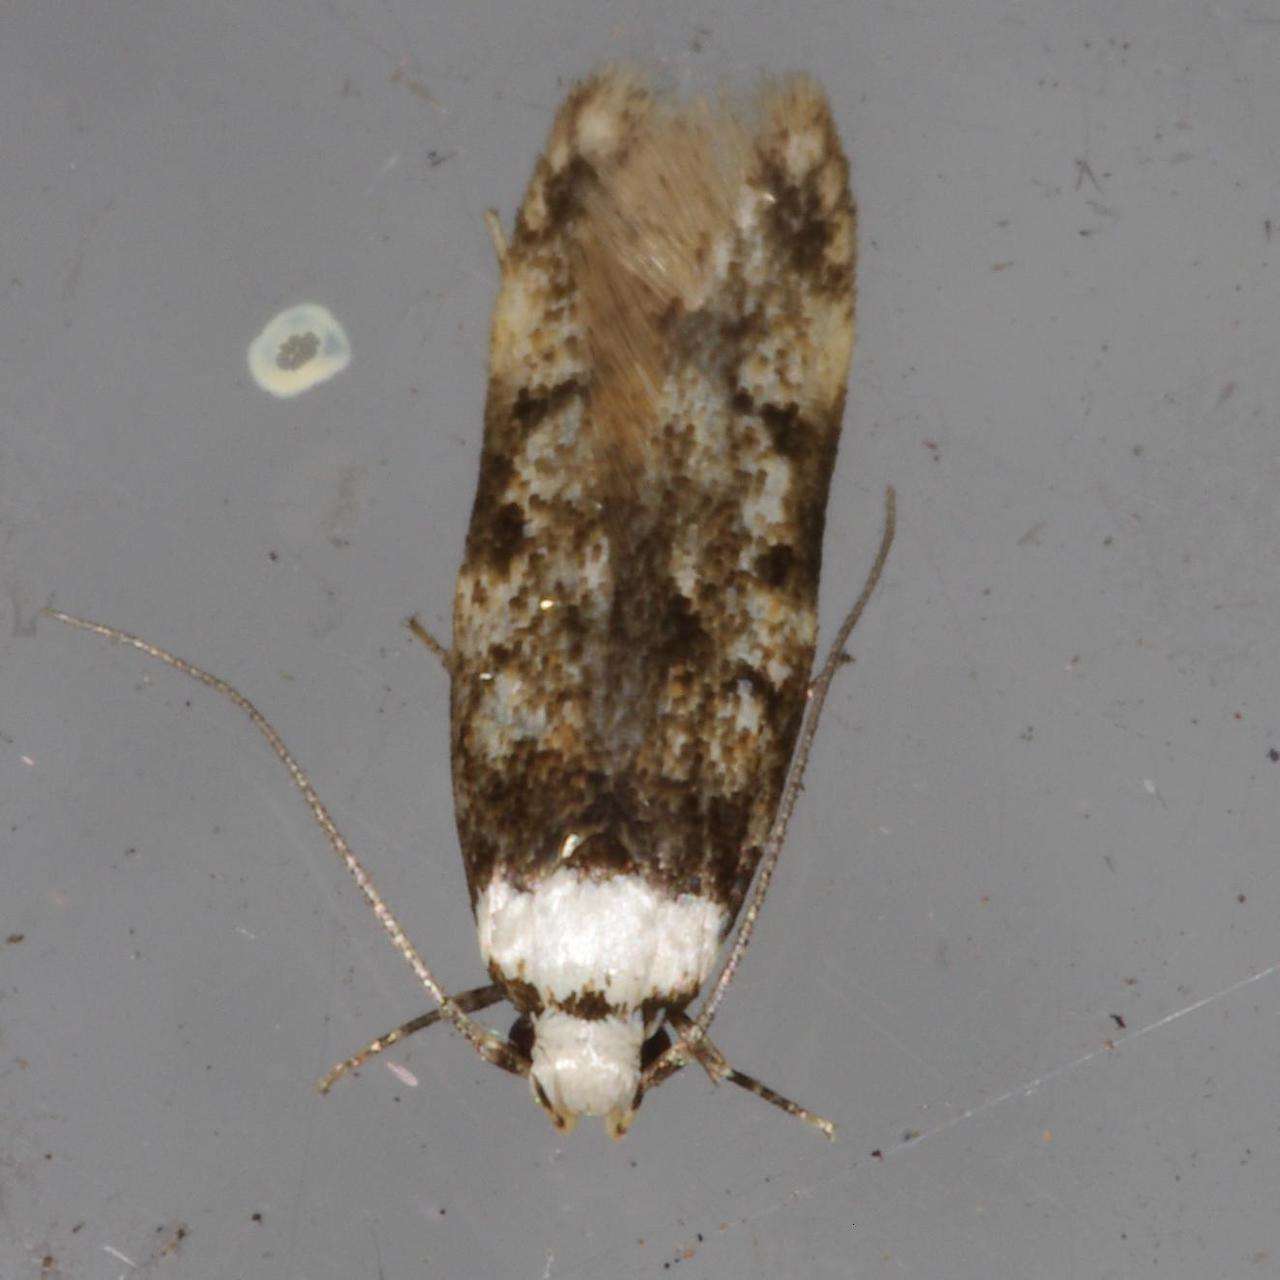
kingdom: Animalia
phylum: Arthropoda
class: Insecta
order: Lepidoptera
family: Oecophoridae
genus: Endrosis
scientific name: Endrosis sarcitrella
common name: White-shouldered house moth
